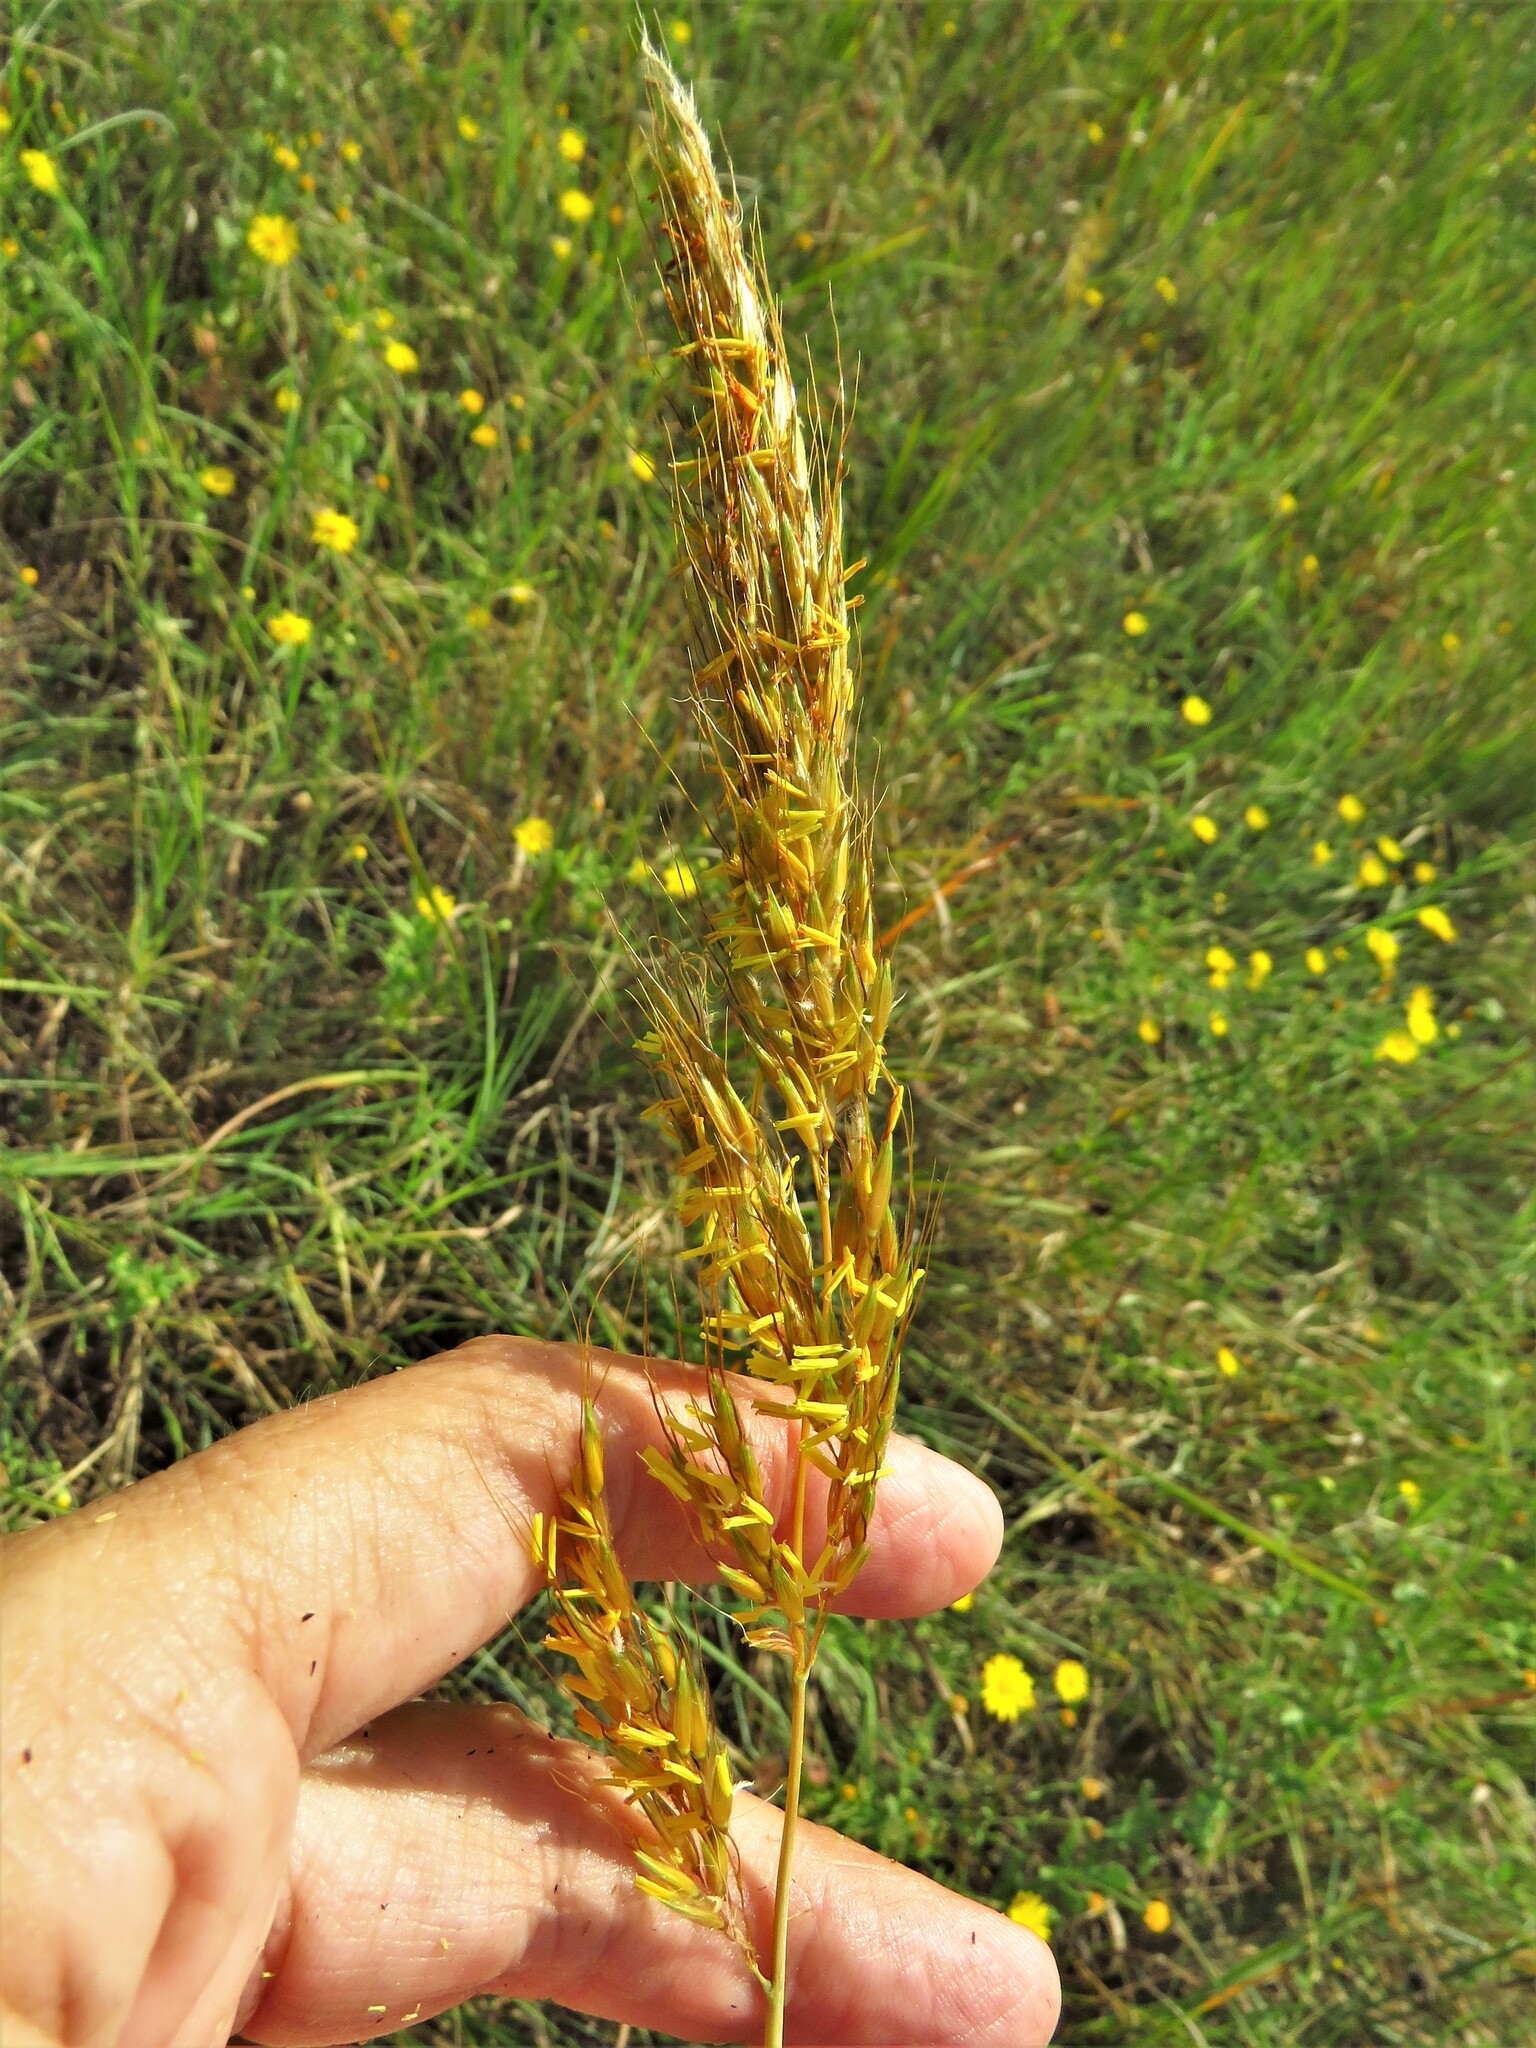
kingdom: Plantae
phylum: Tracheophyta
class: Liliopsida
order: Poales
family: Poaceae
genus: Sorghastrum
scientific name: Sorghastrum nutans
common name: Indian grass
